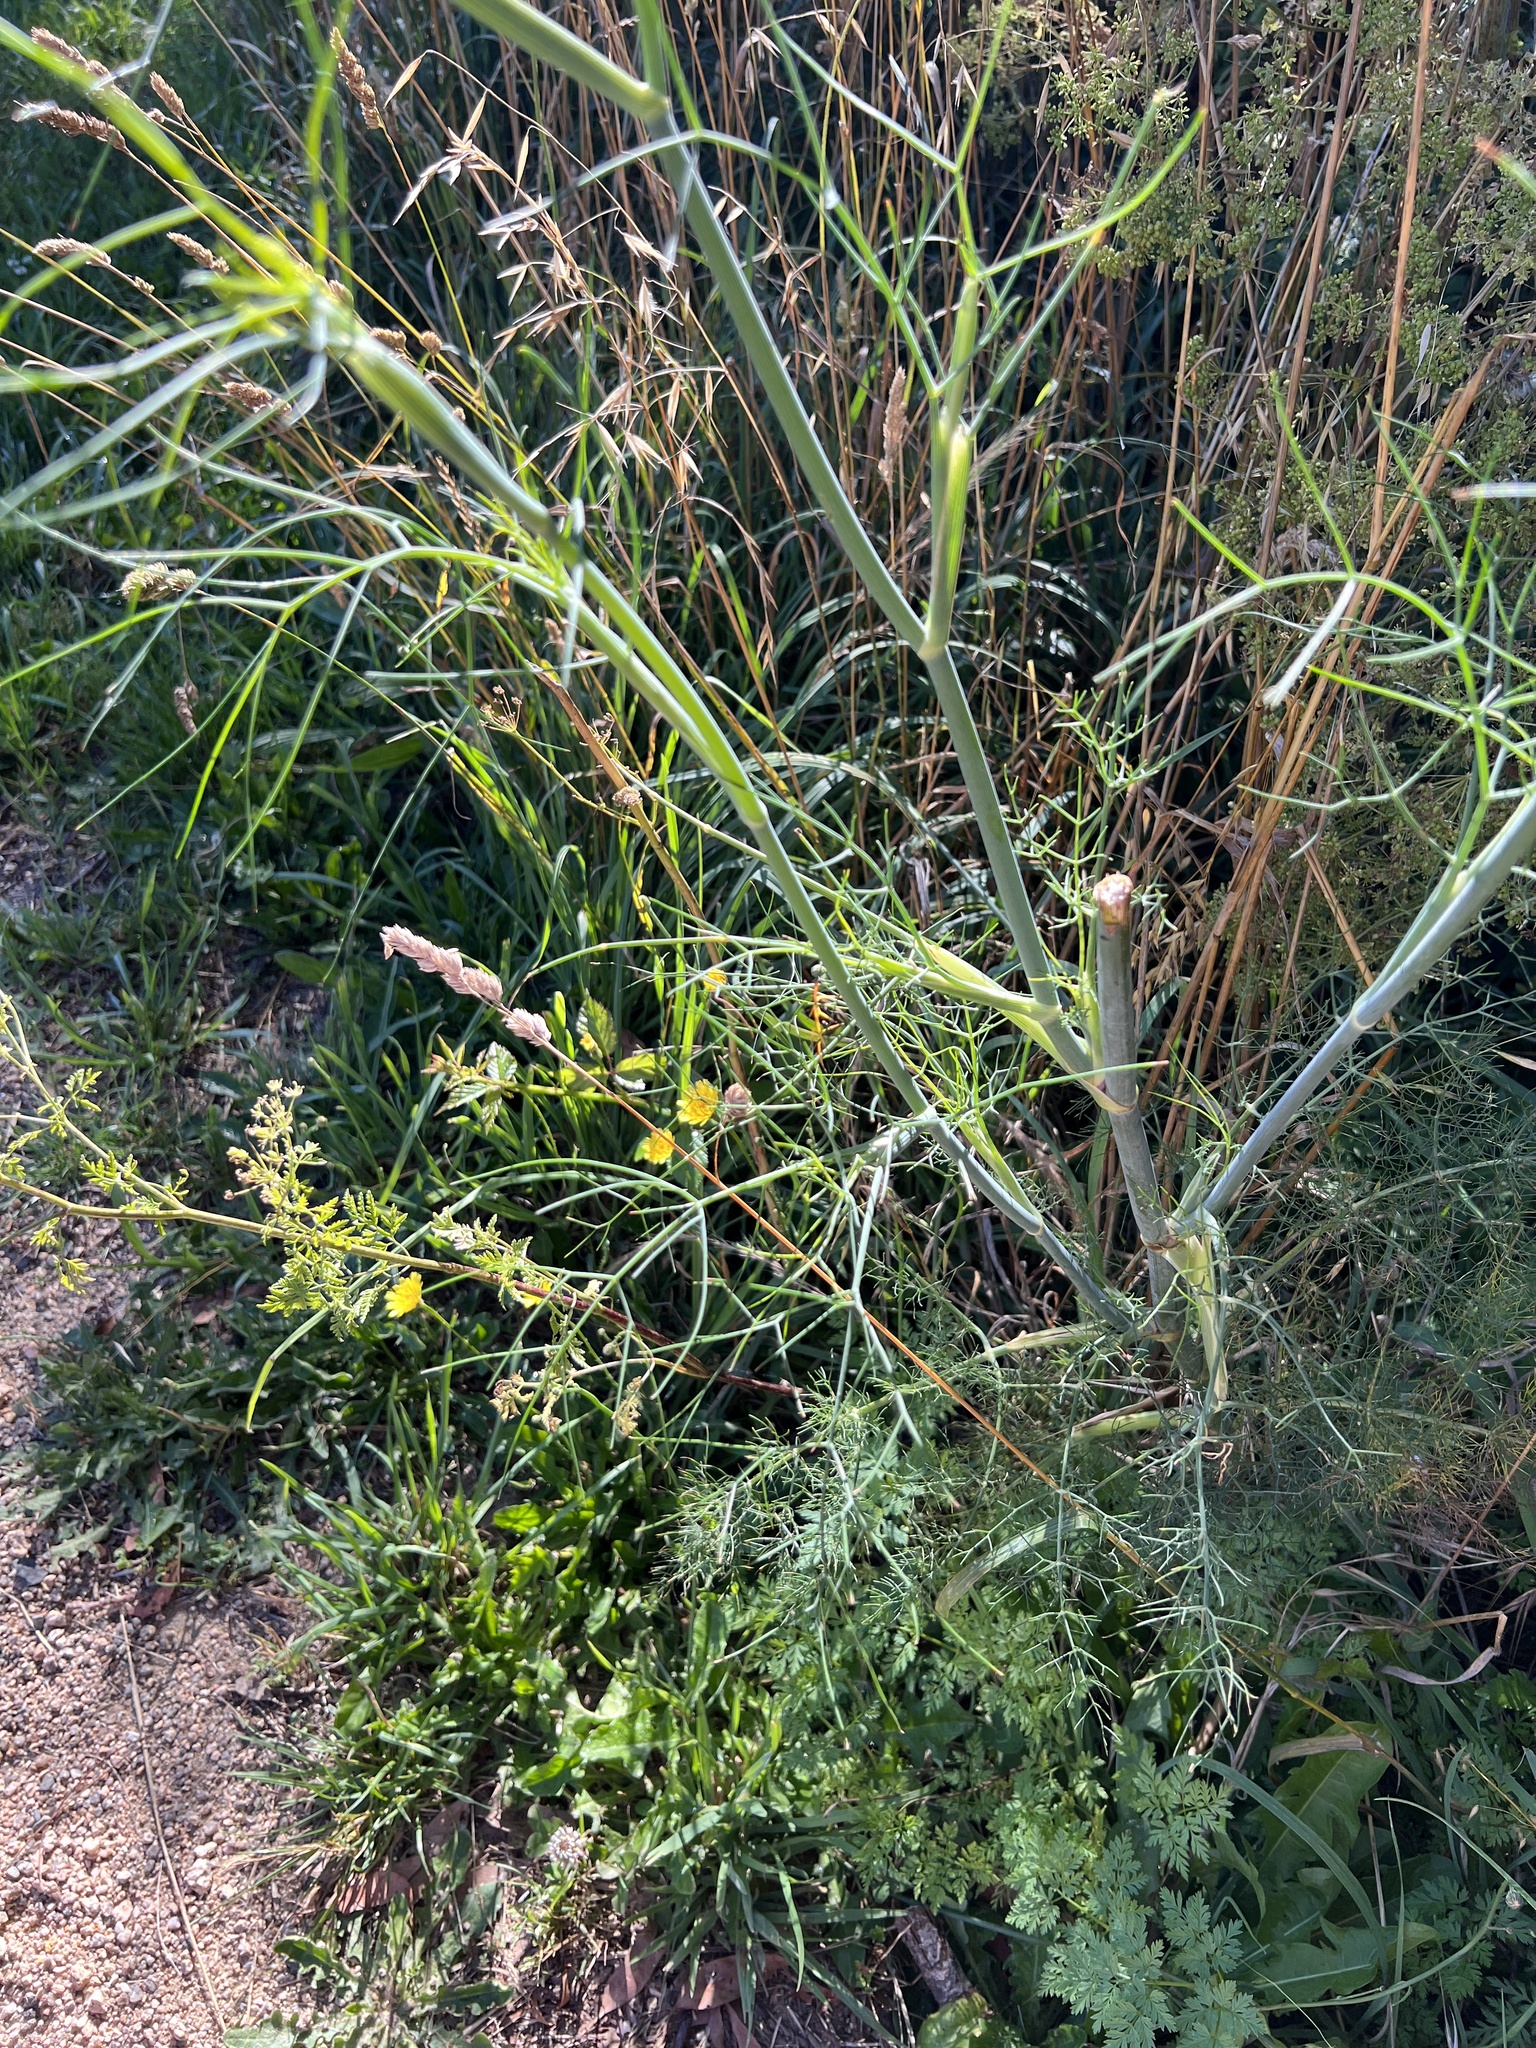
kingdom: Plantae
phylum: Tracheophyta
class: Magnoliopsida
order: Apiales
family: Apiaceae
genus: Foeniculum
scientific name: Foeniculum vulgare
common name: Fennel
